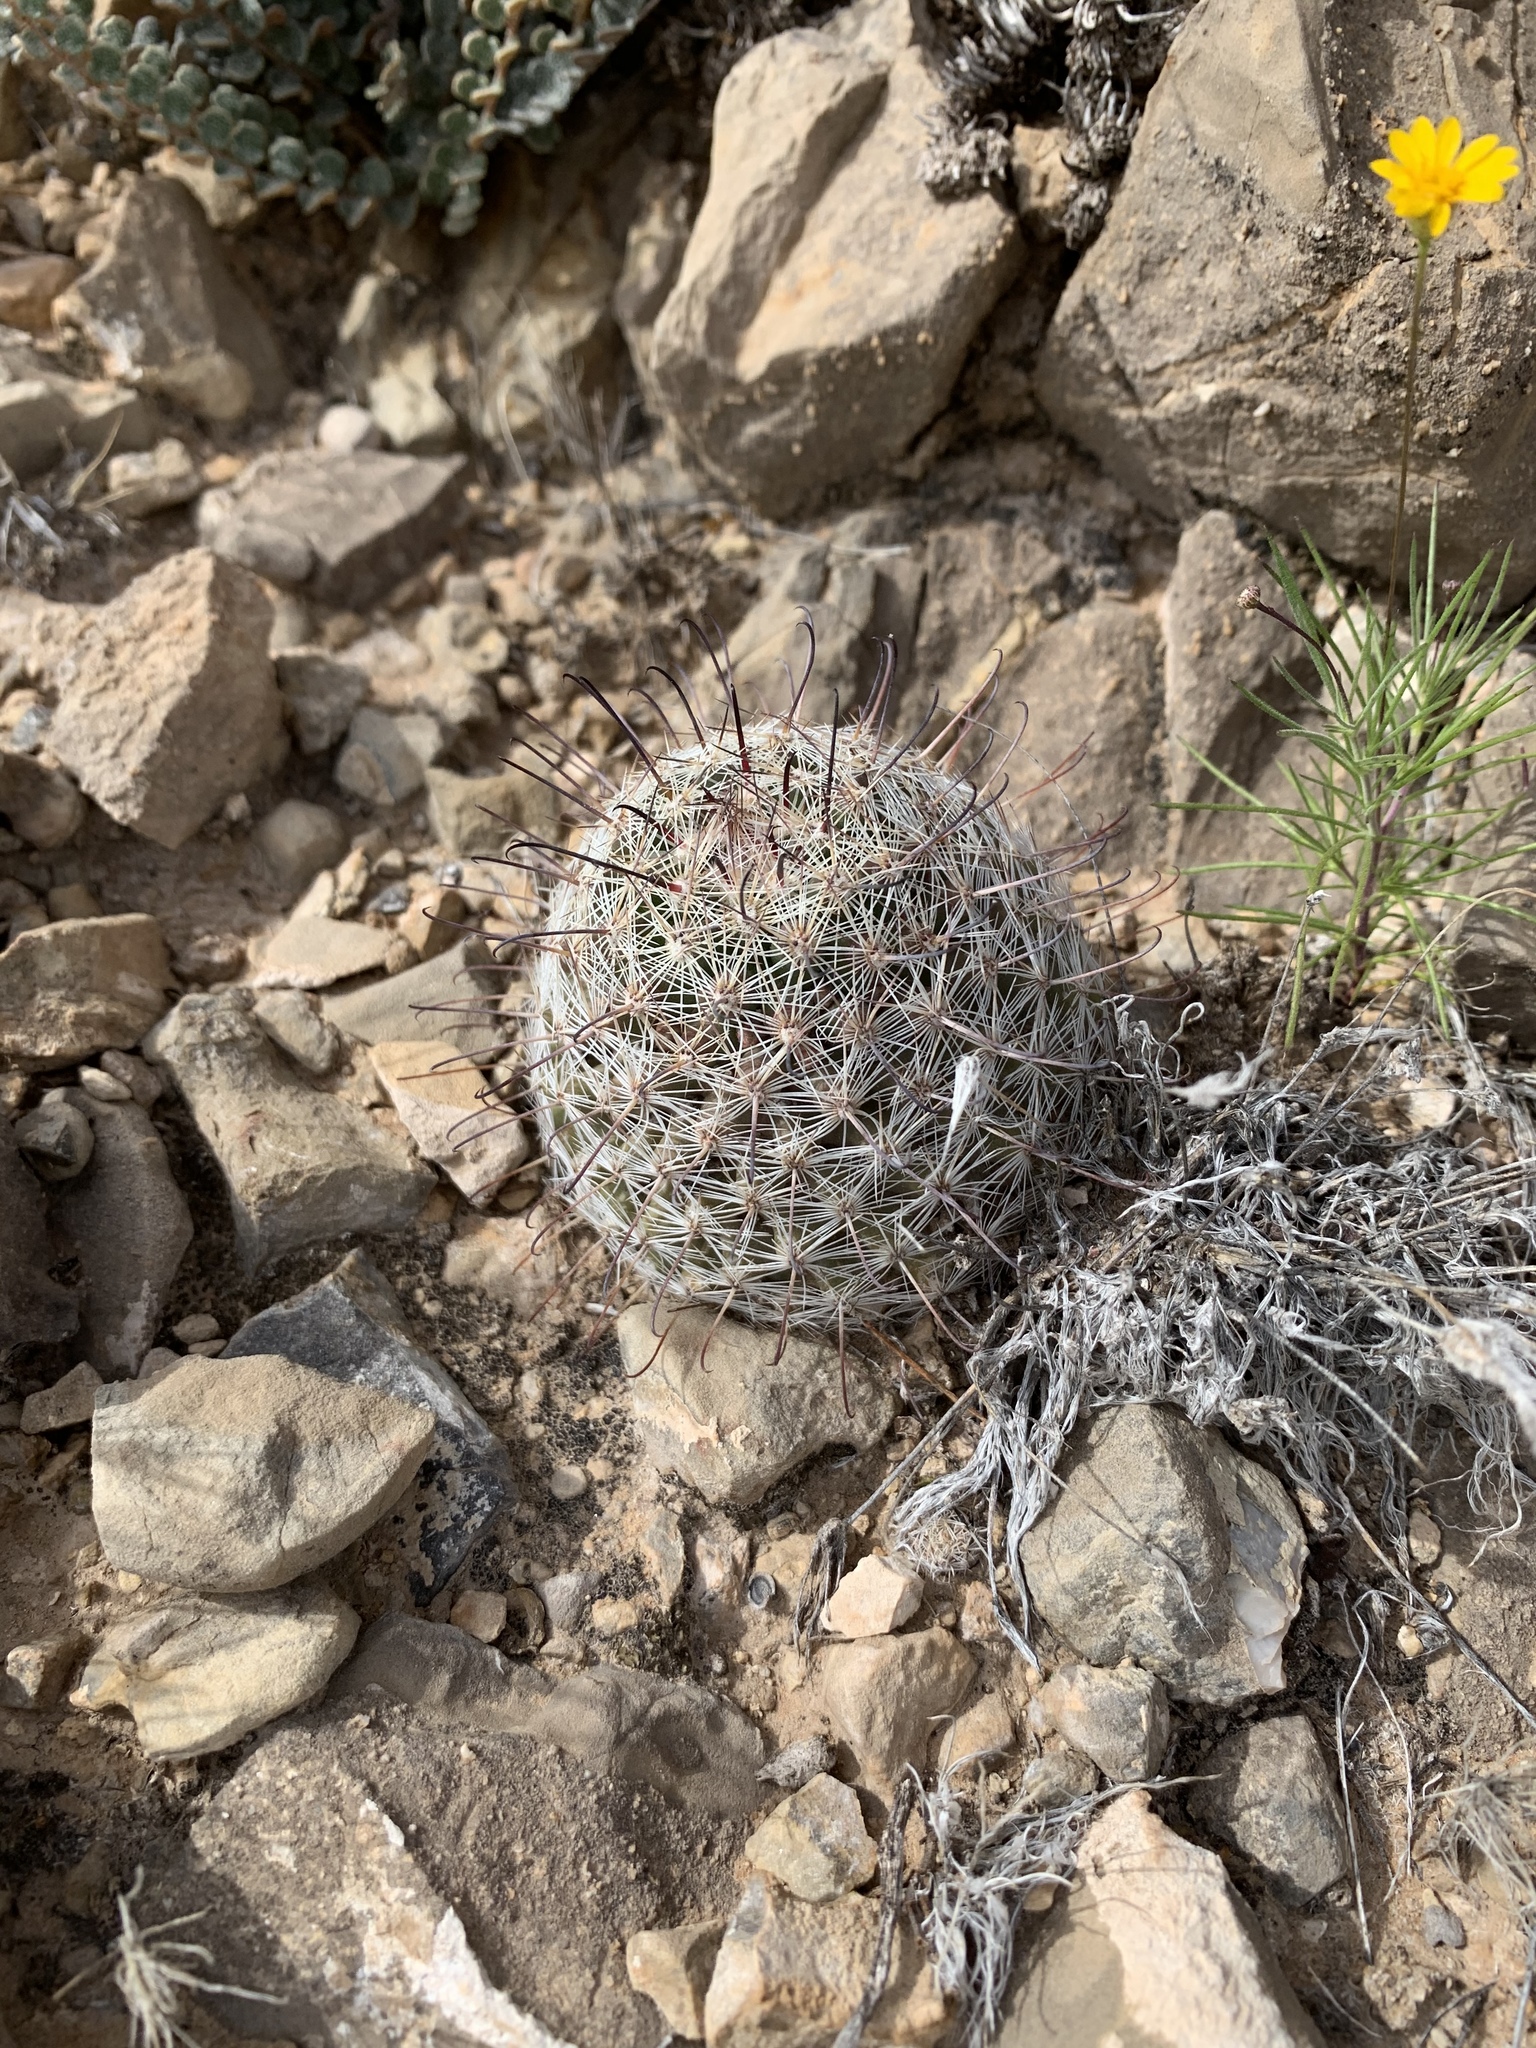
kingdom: Plantae
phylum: Tracheophyta
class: Magnoliopsida
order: Caryophyllales
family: Cactaceae
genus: Cochemiea
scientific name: Cochemiea grahamii
